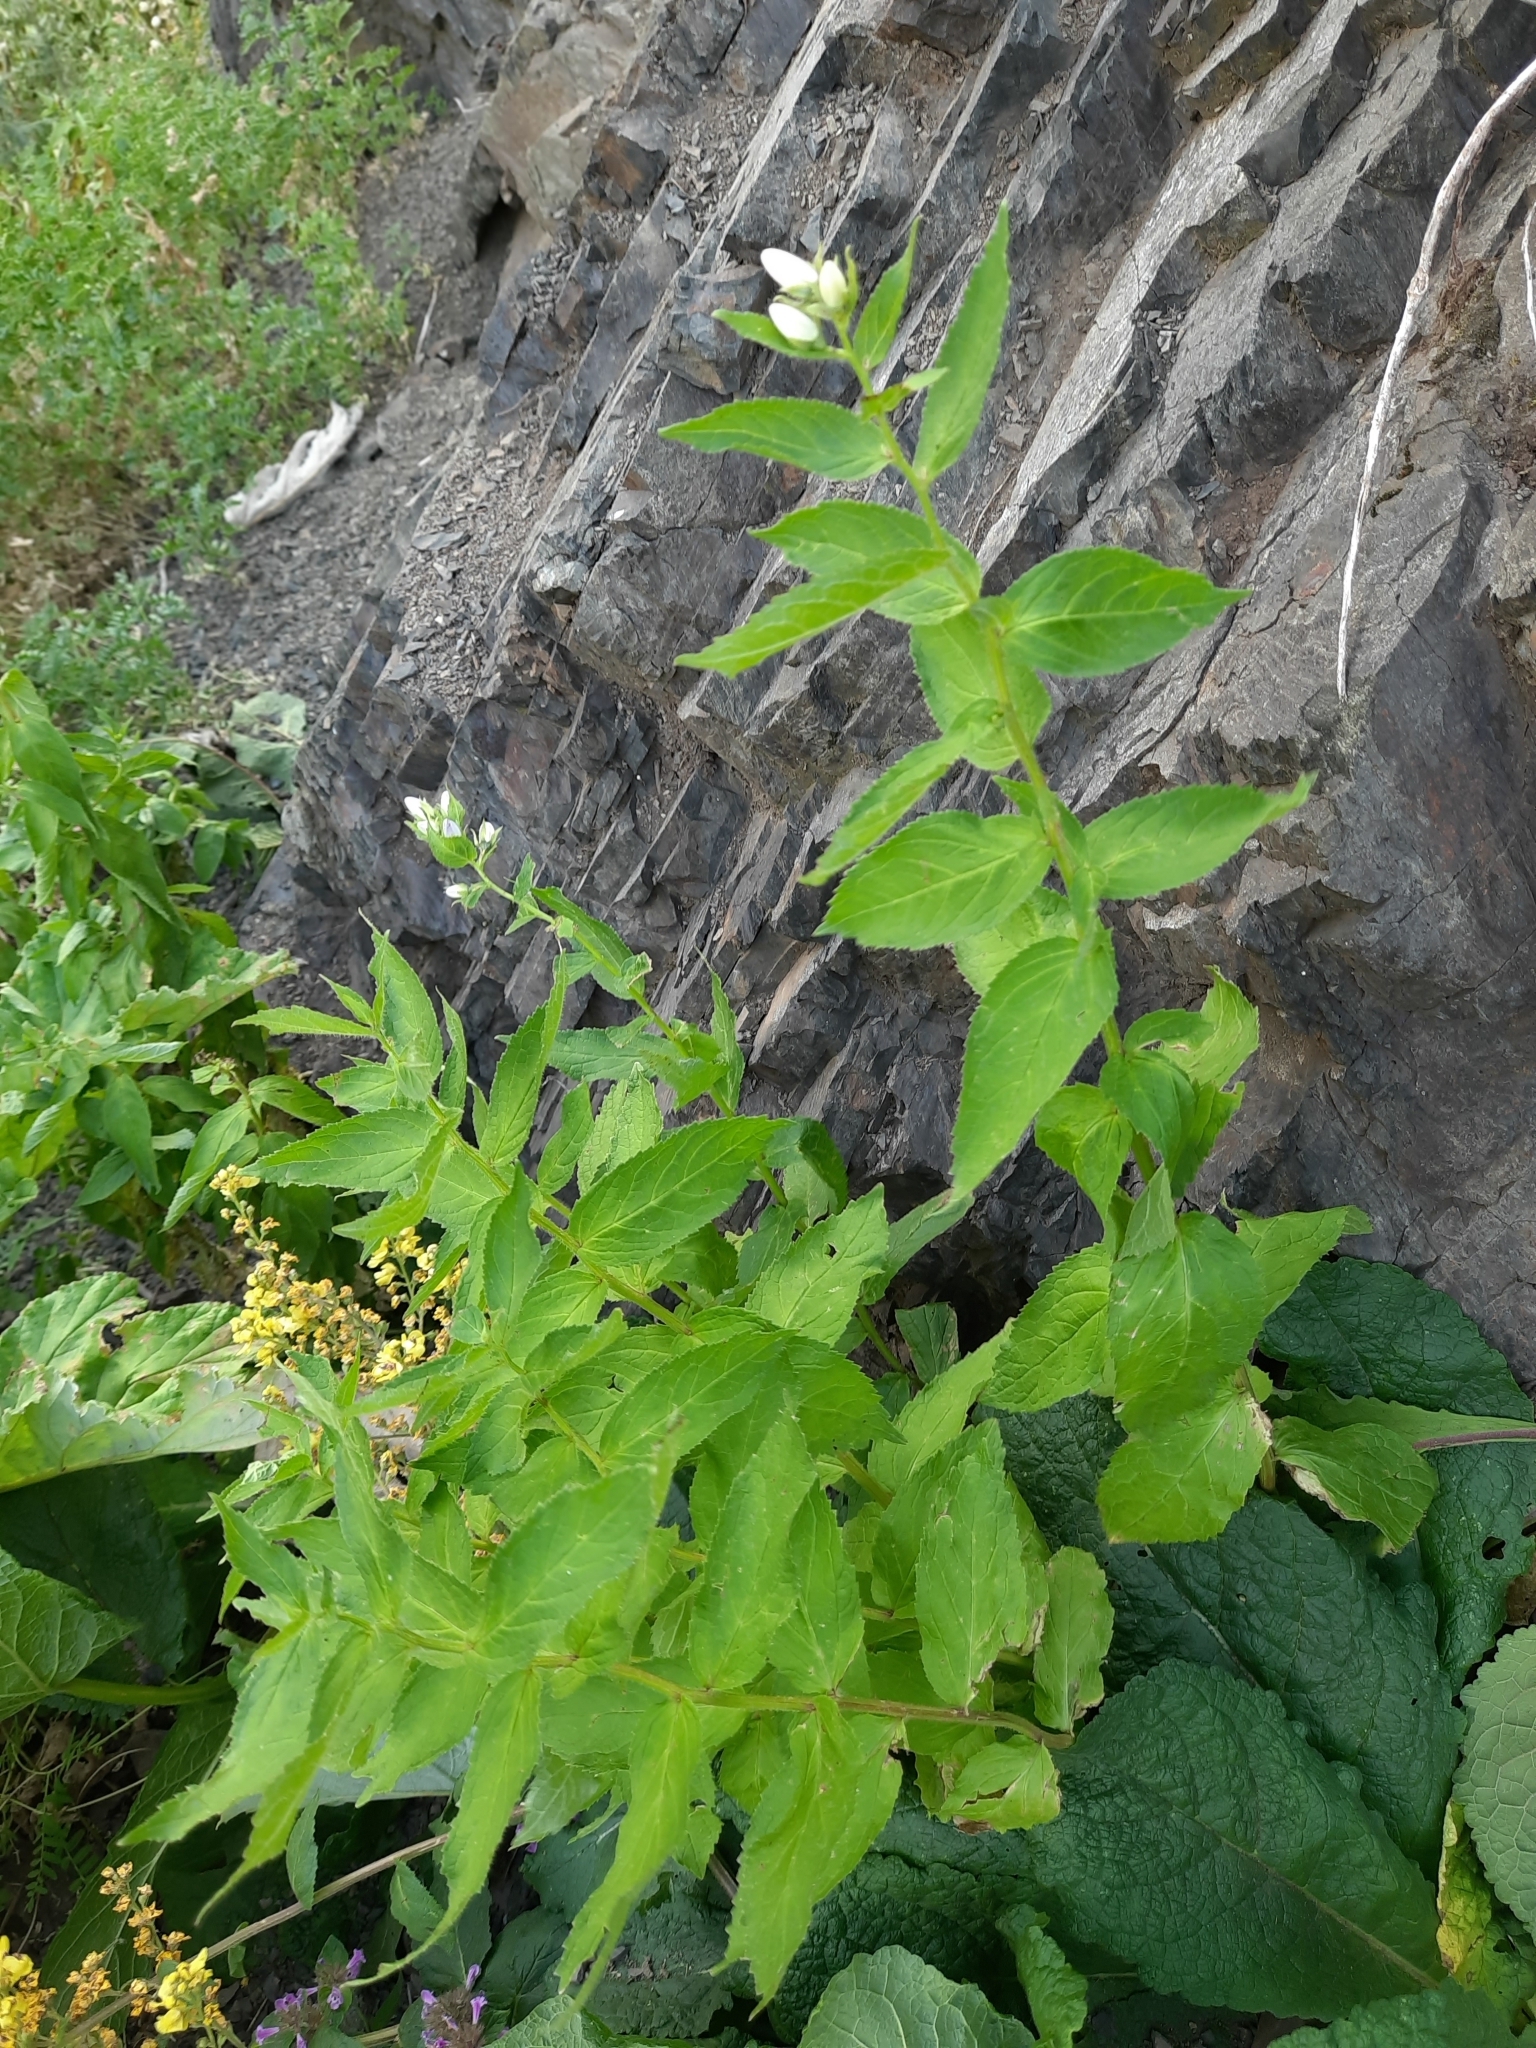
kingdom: Plantae
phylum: Tracheophyta
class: Magnoliopsida
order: Asterales
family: Campanulaceae
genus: Campanula
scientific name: Campanula lactiflora
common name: Milky bellflower
